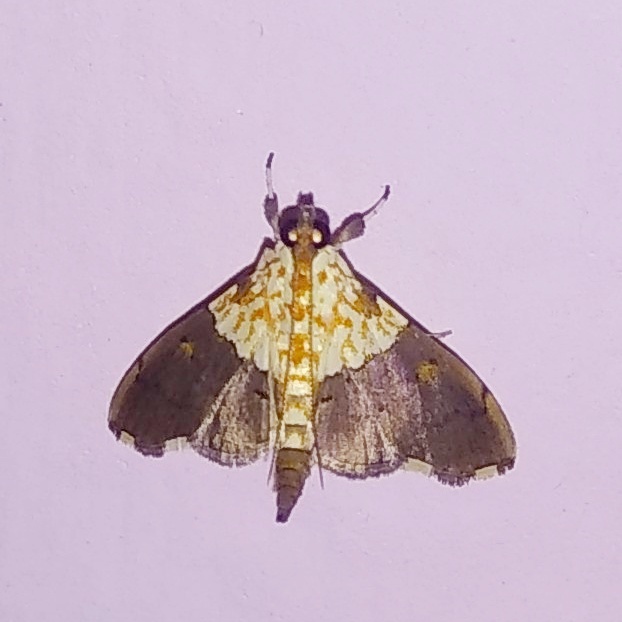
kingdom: Animalia
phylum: Arthropoda
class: Insecta
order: Lepidoptera
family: Crambidae
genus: Aetholix
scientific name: Aetholix flavibasalis
